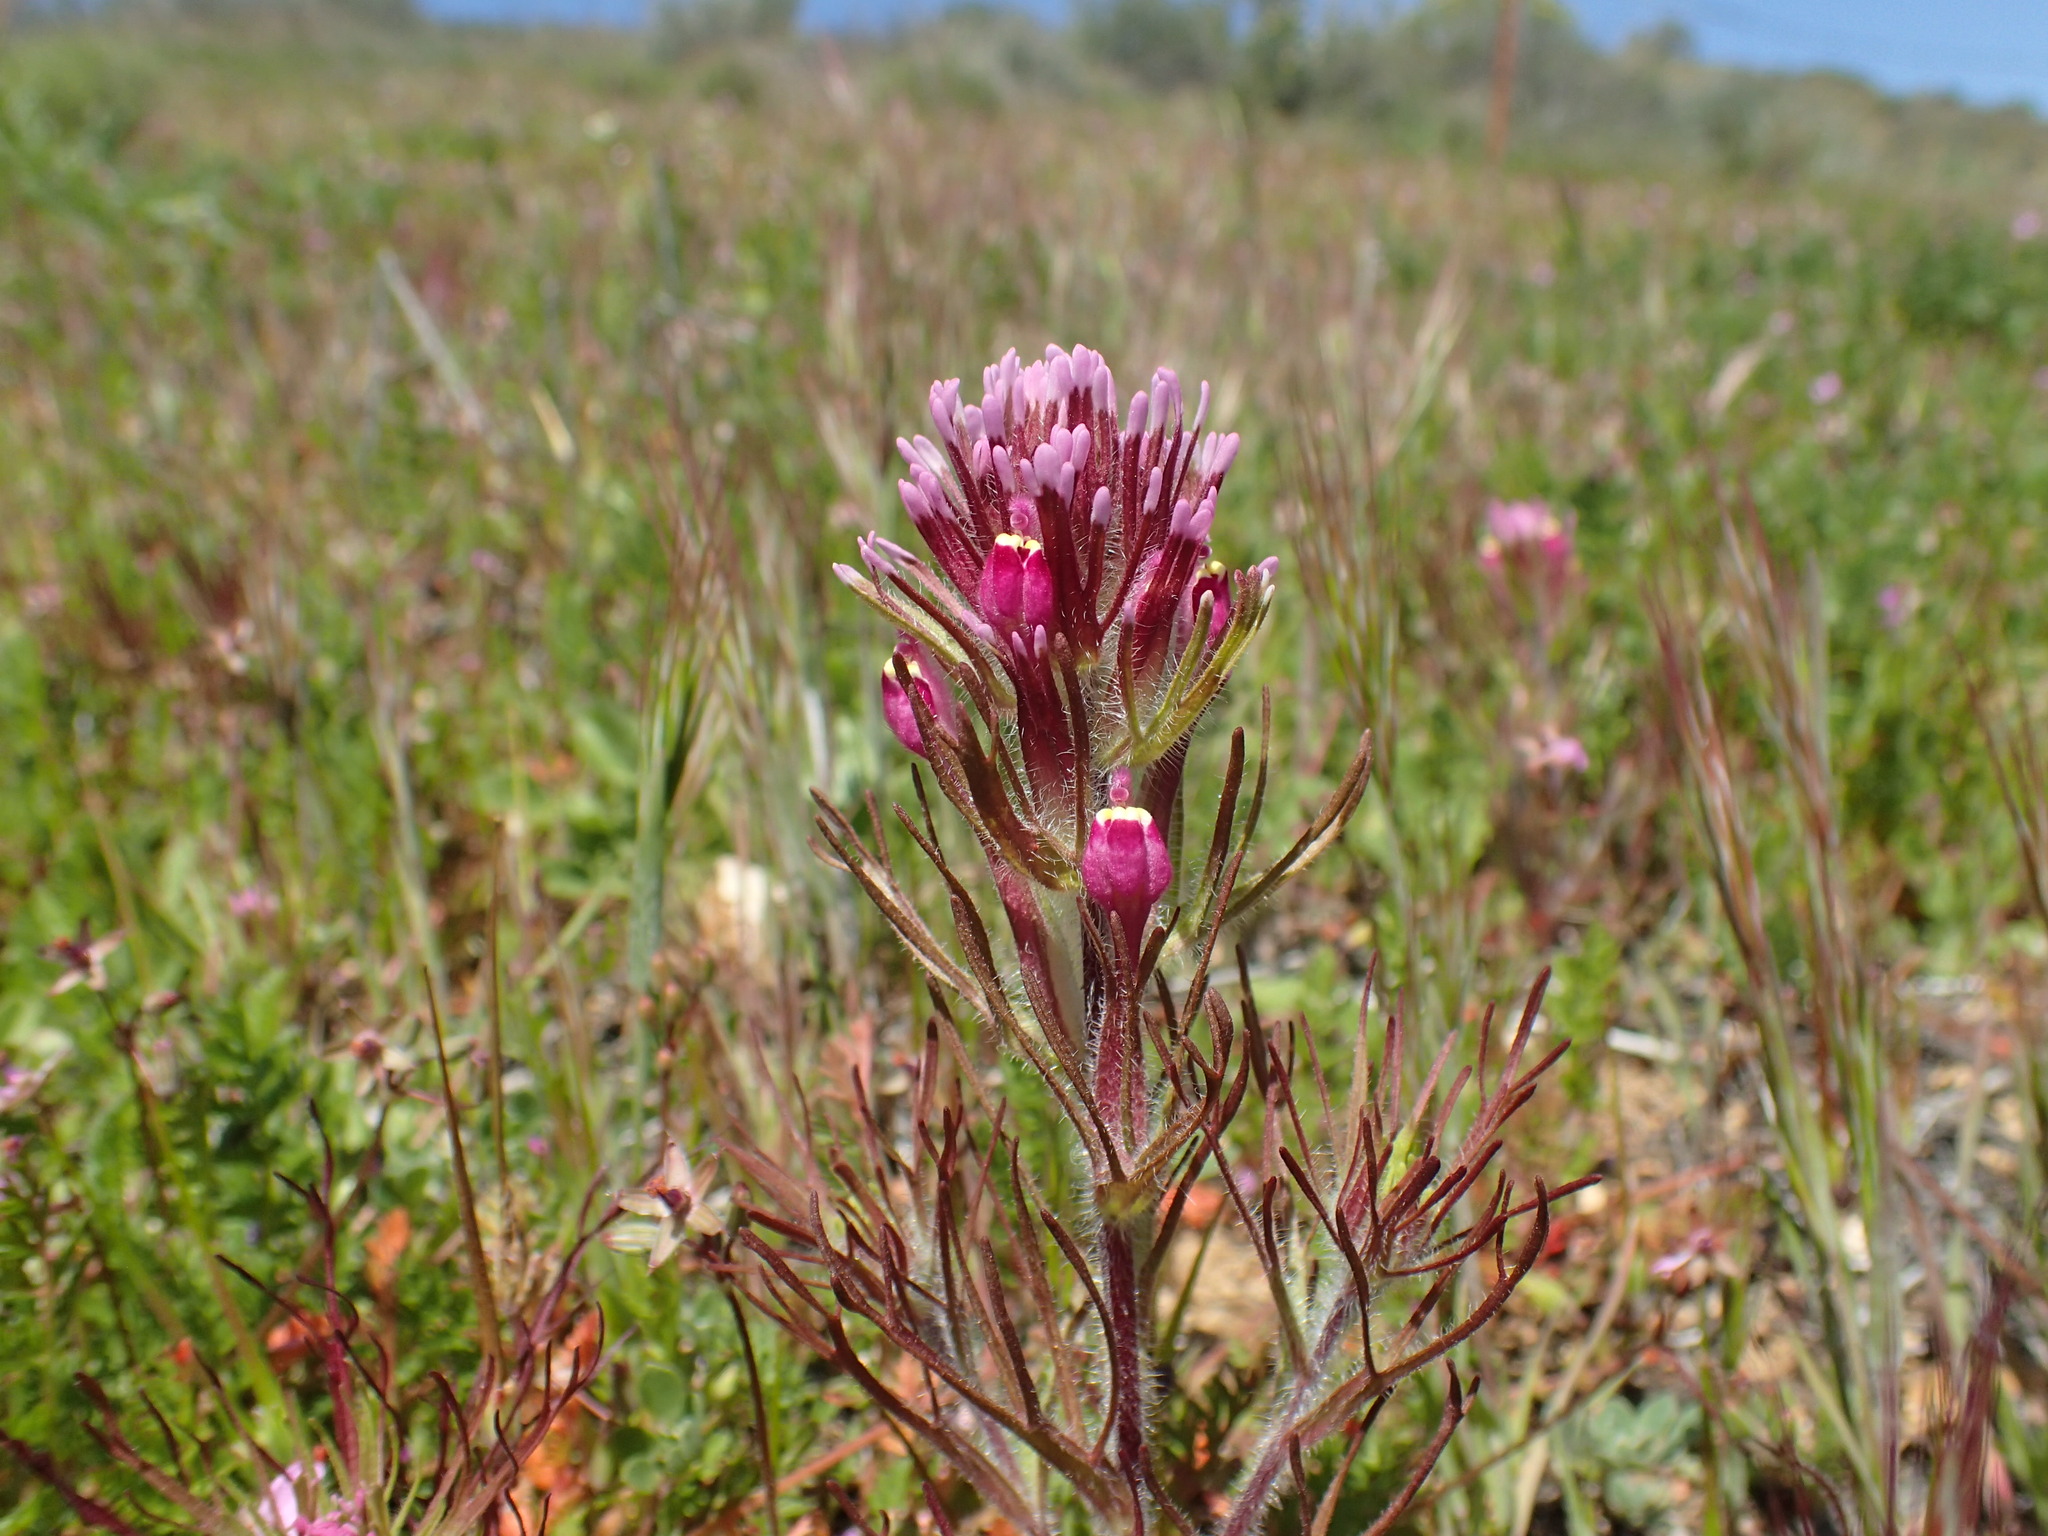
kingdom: Plantae
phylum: Tracheophyta
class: Magnoliopsida
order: Lamiales
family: Orobanchaceae
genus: Castilleja
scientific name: Castilleja exserta
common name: Purple owl-clover
